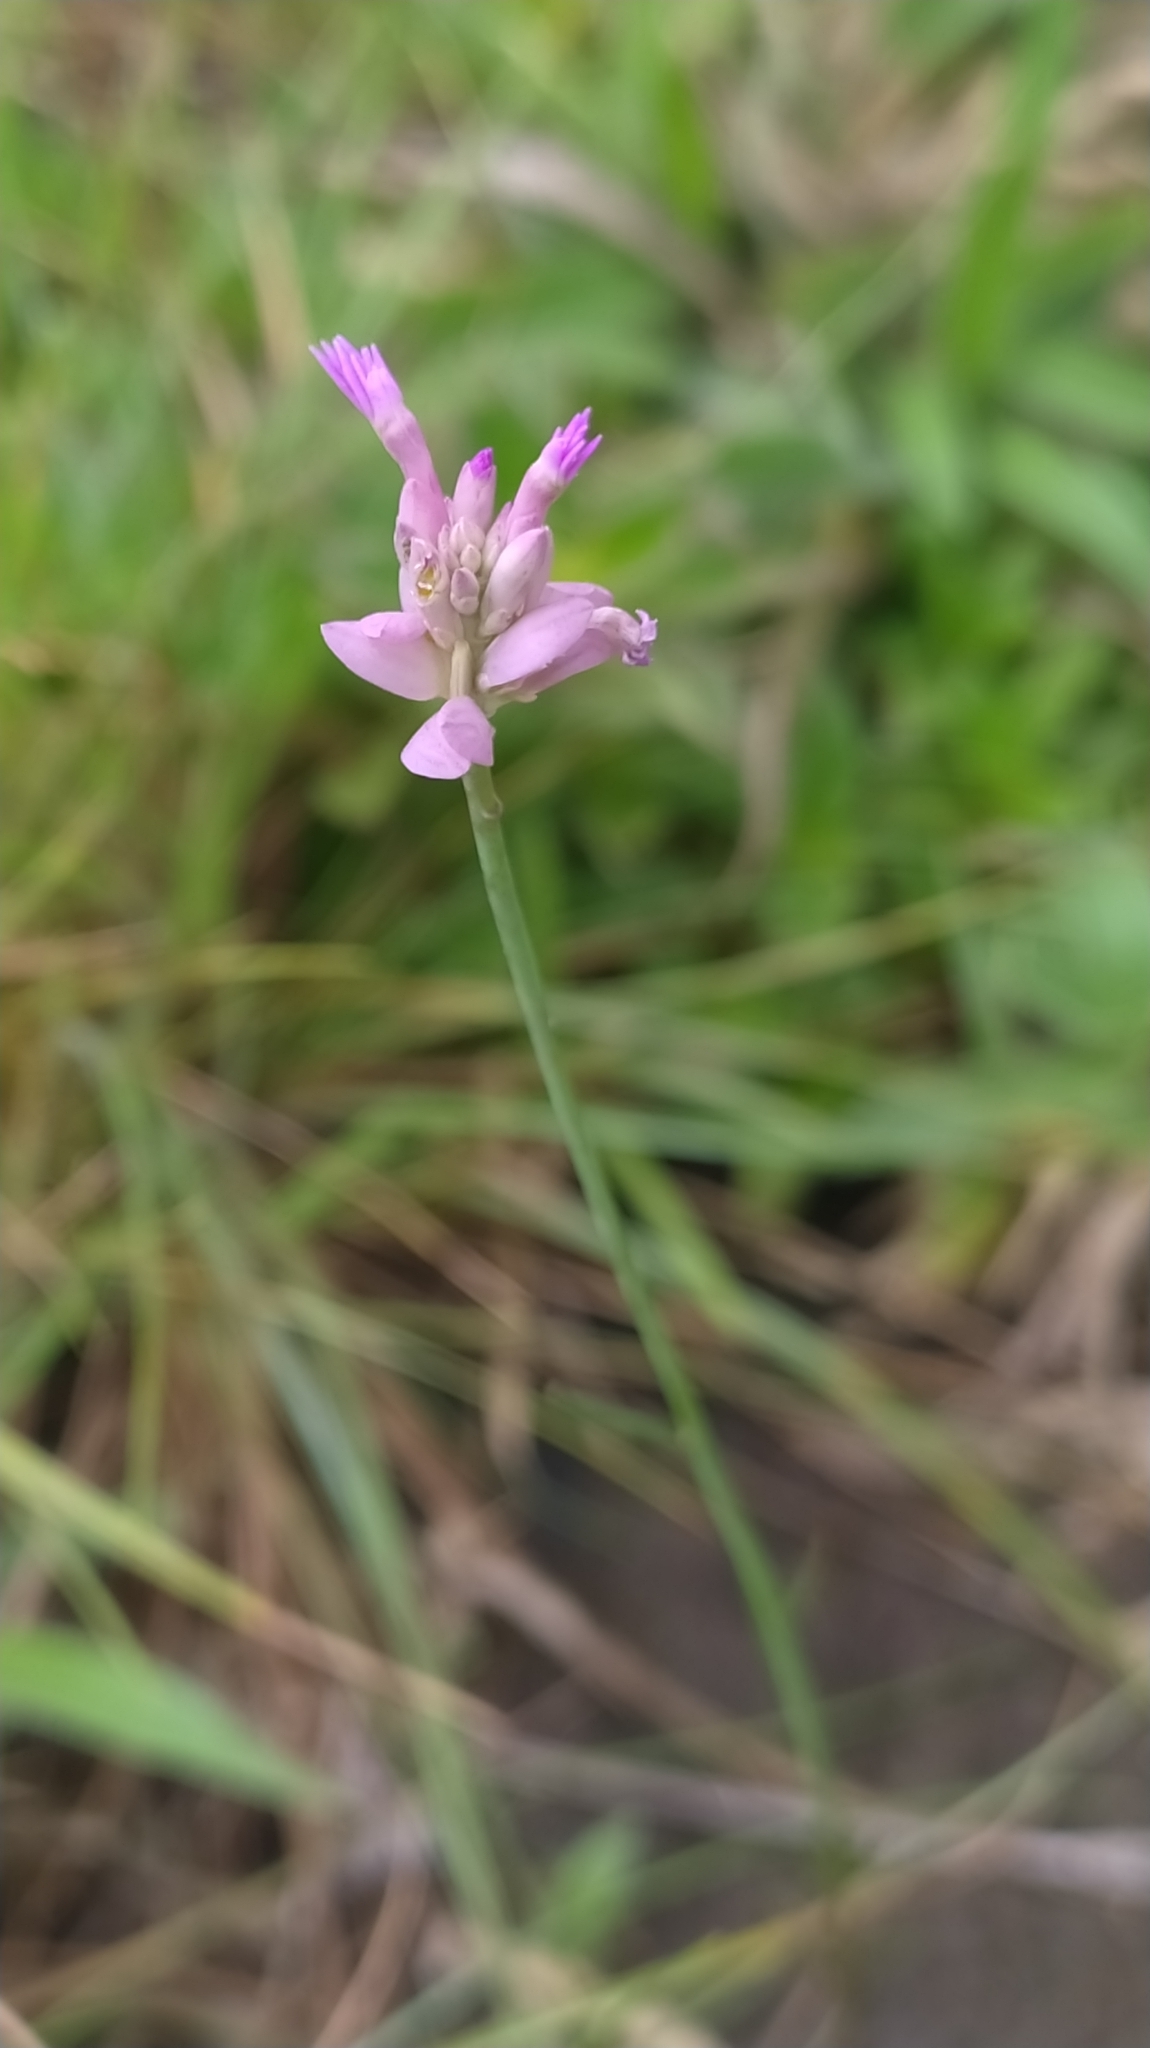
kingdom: Plantae
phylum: Tracheophyta
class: Magnoliopsida
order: Fabales
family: Polygalaceae
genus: Polygala
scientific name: Polygala adenophora
